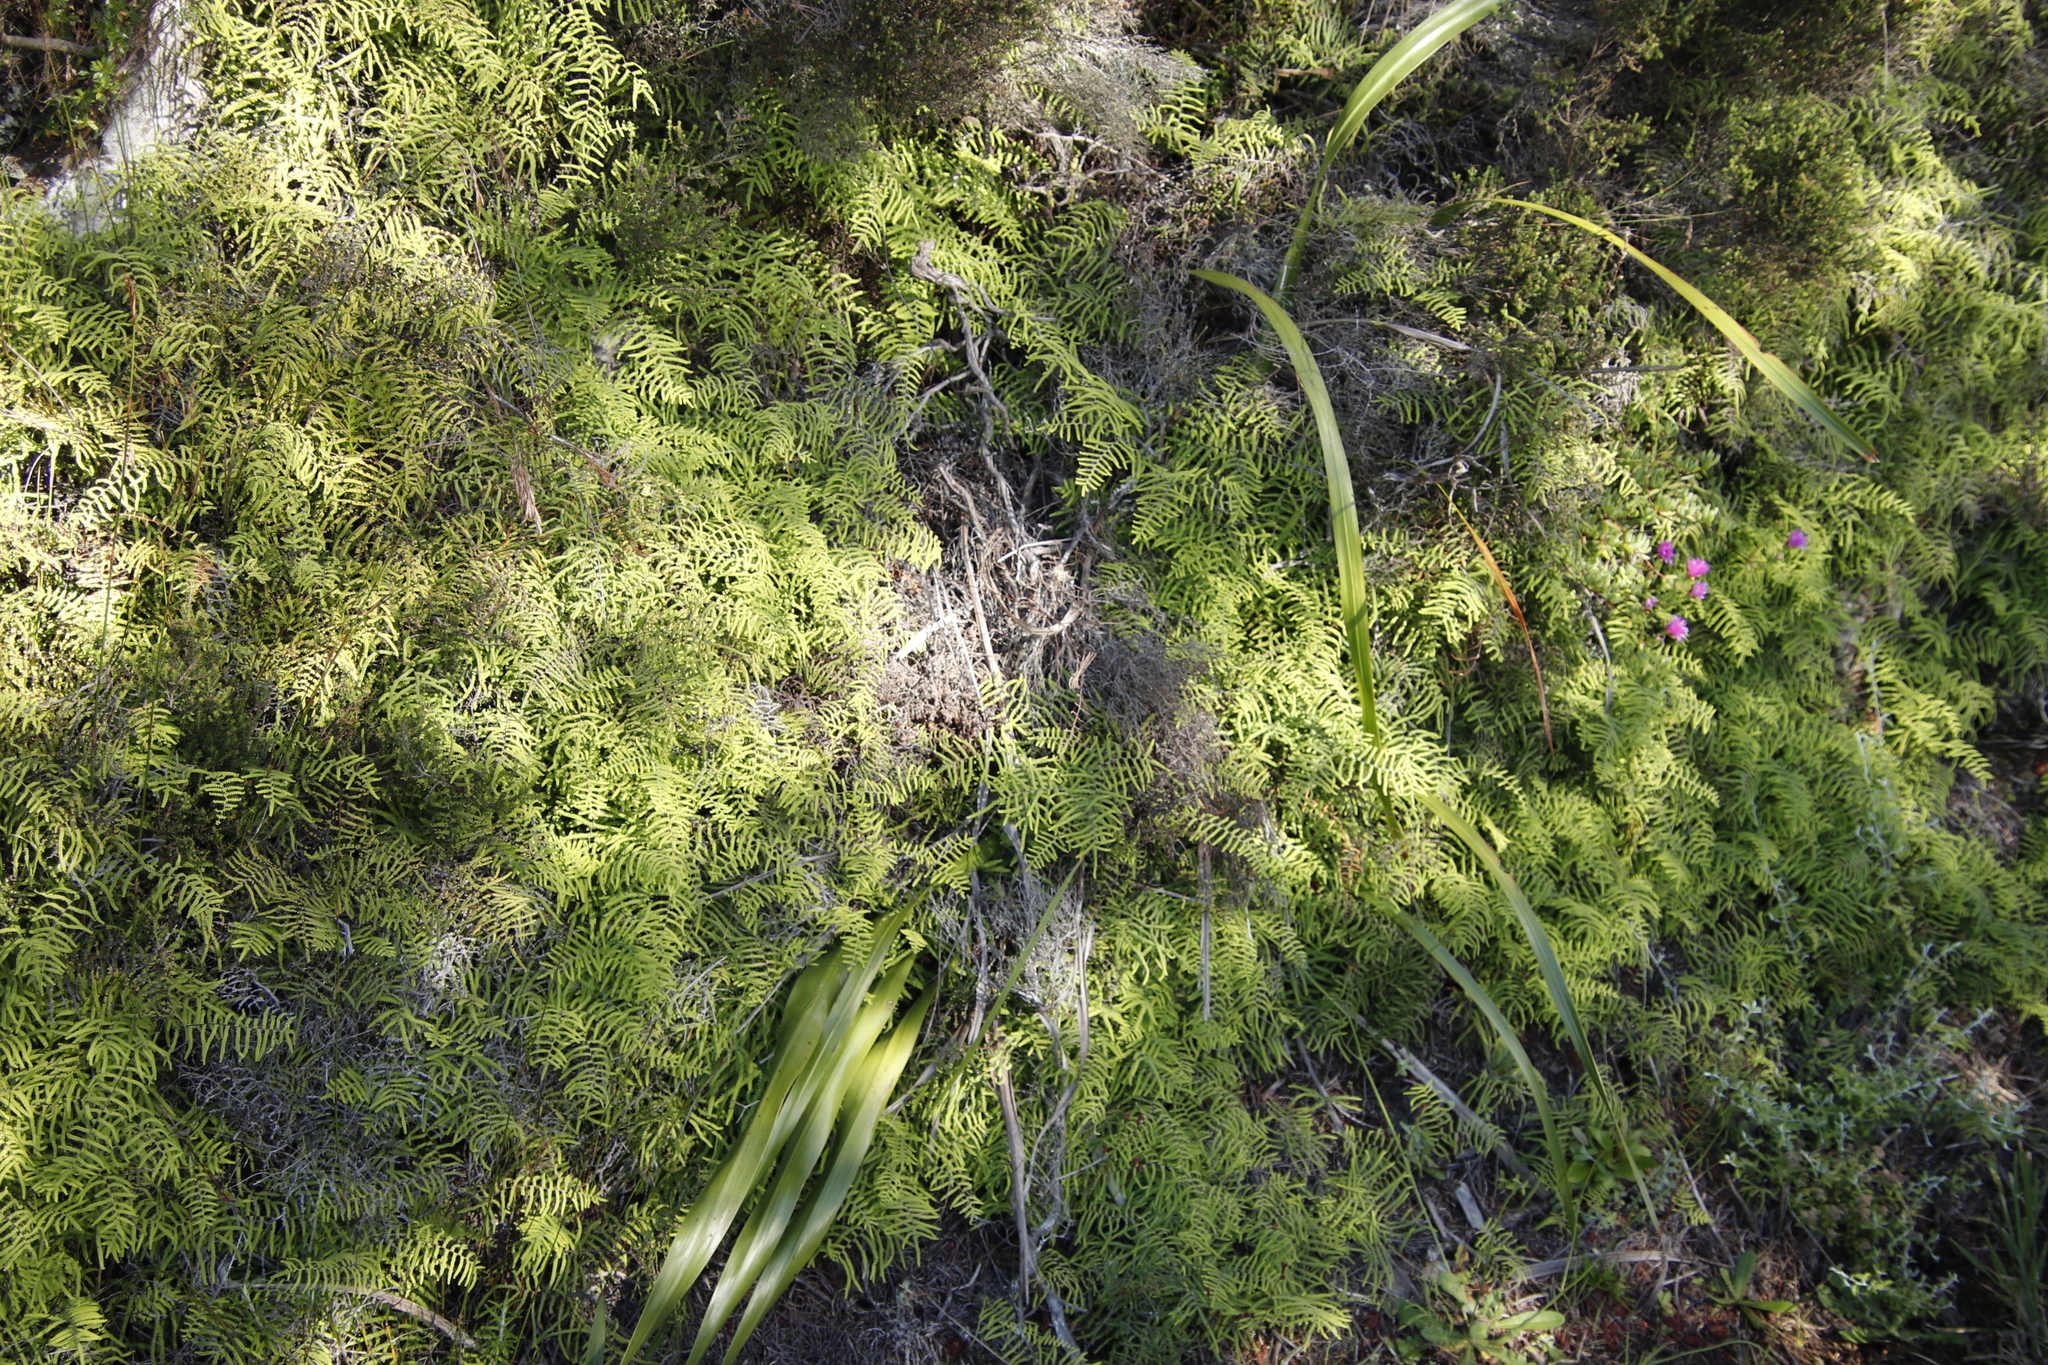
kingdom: Plantae
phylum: Tracheophyta
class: Polypodiopsida
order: Gleicheniales
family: Gleicheniaceae
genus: Gleichenia
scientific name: Gleichenia polypodioides
